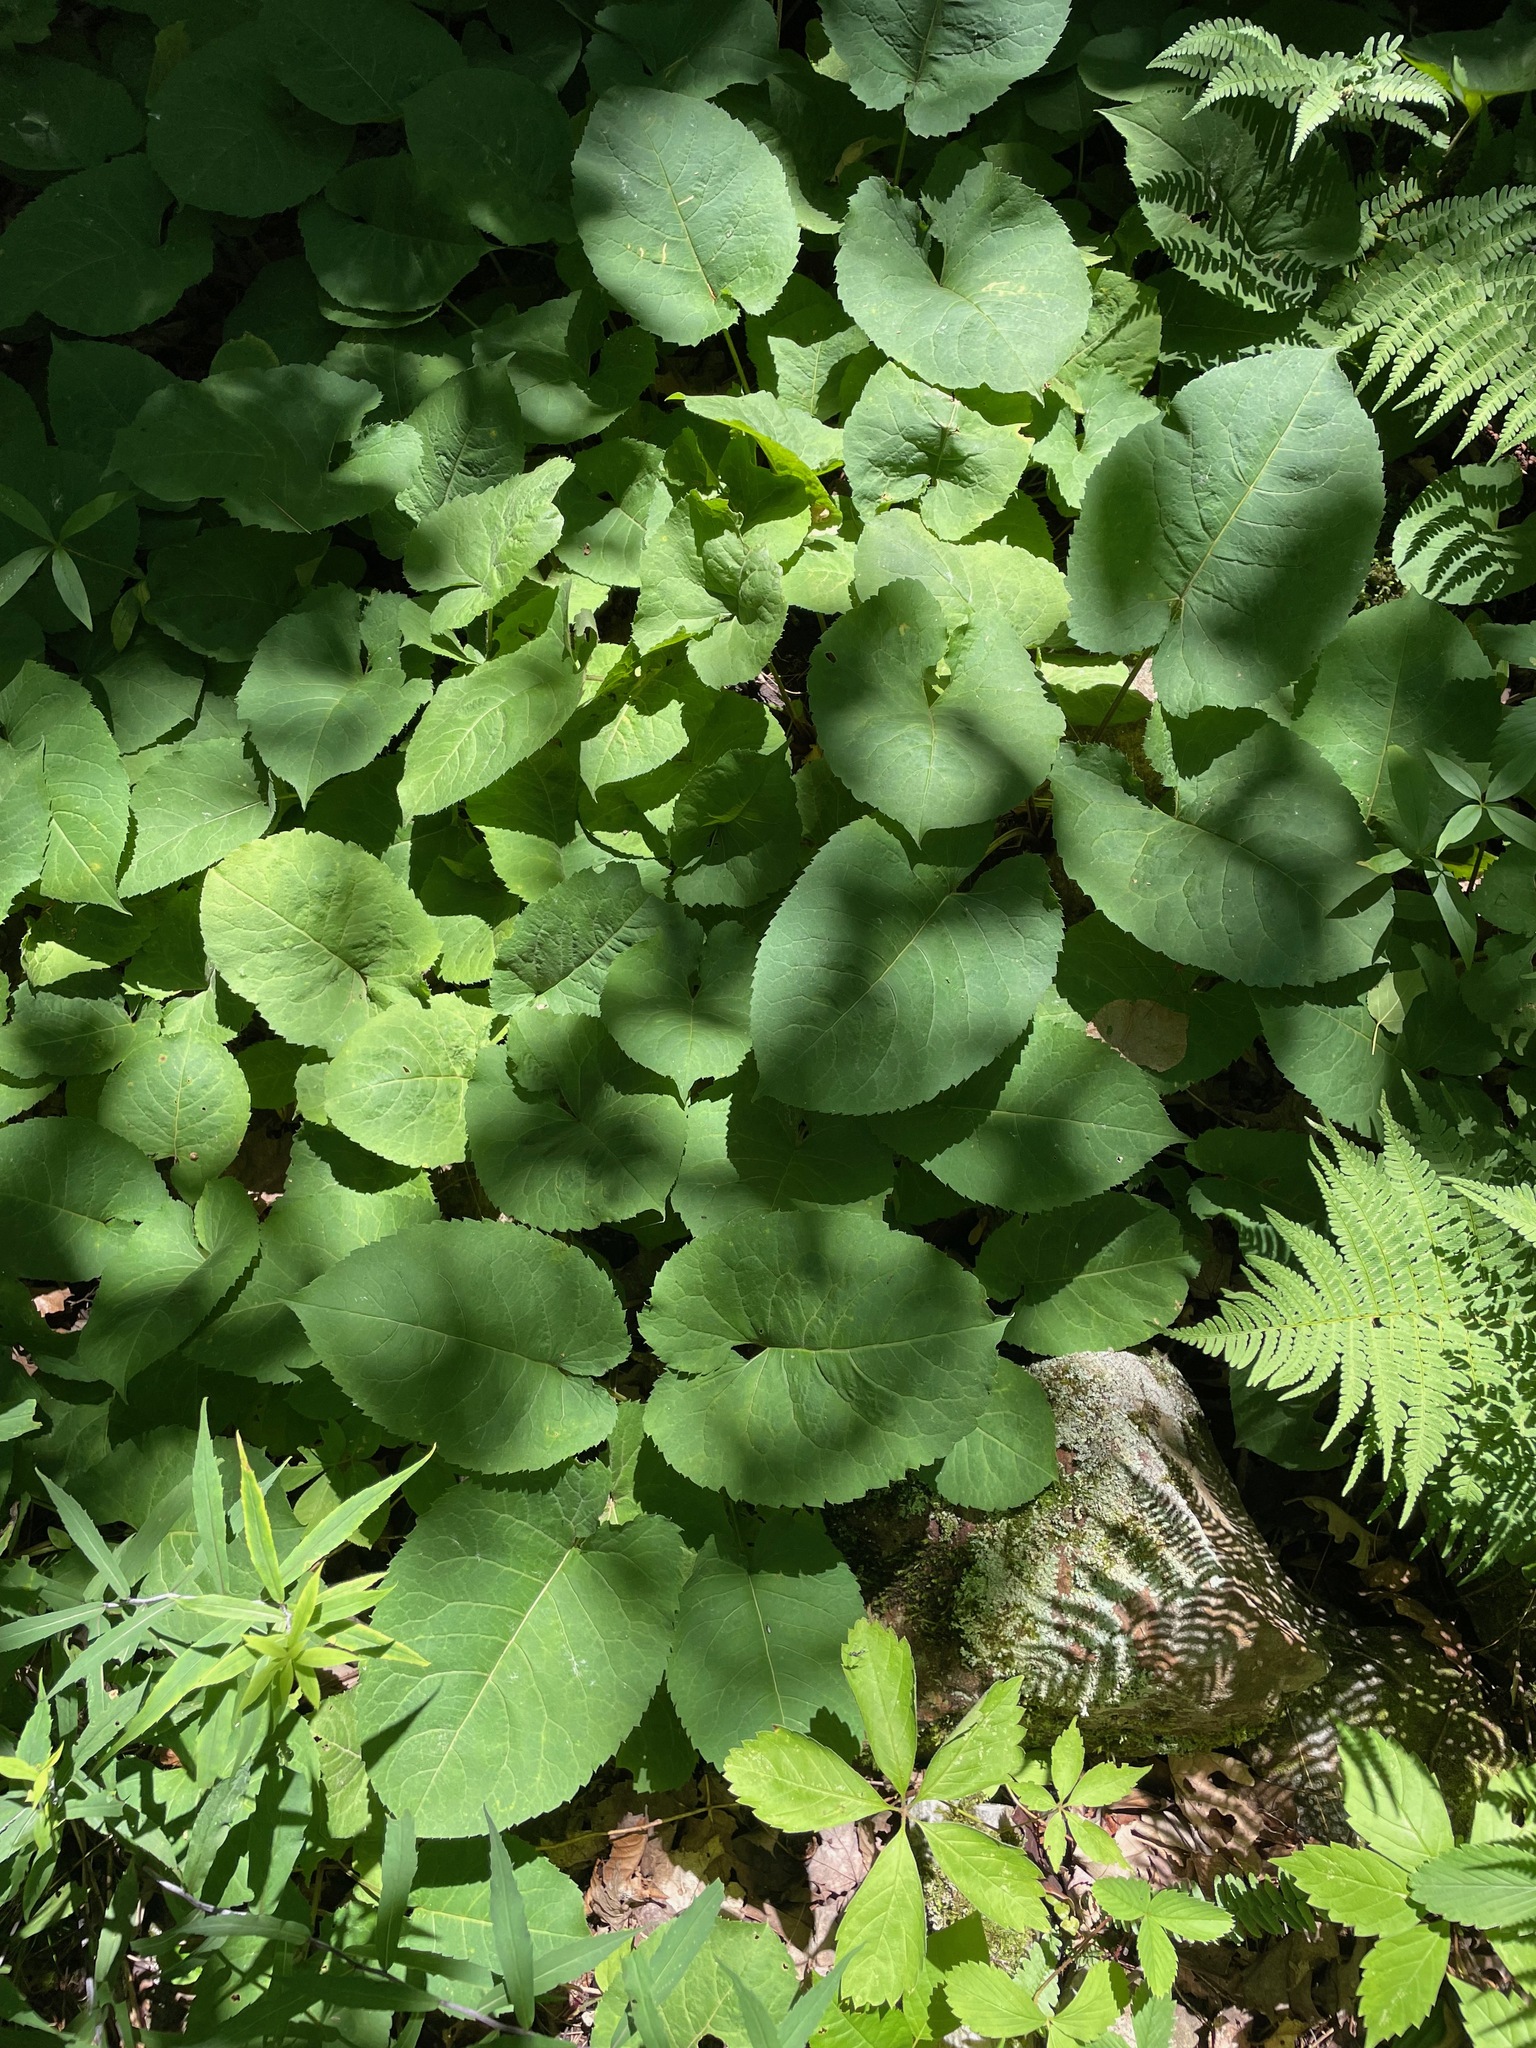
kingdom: Plantae
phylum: Tracheophyta
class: Magnoliopsida
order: Asterales
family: Asteraceae
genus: Eurybia
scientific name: Eurybia macrophylla
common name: Big-leaved aster
